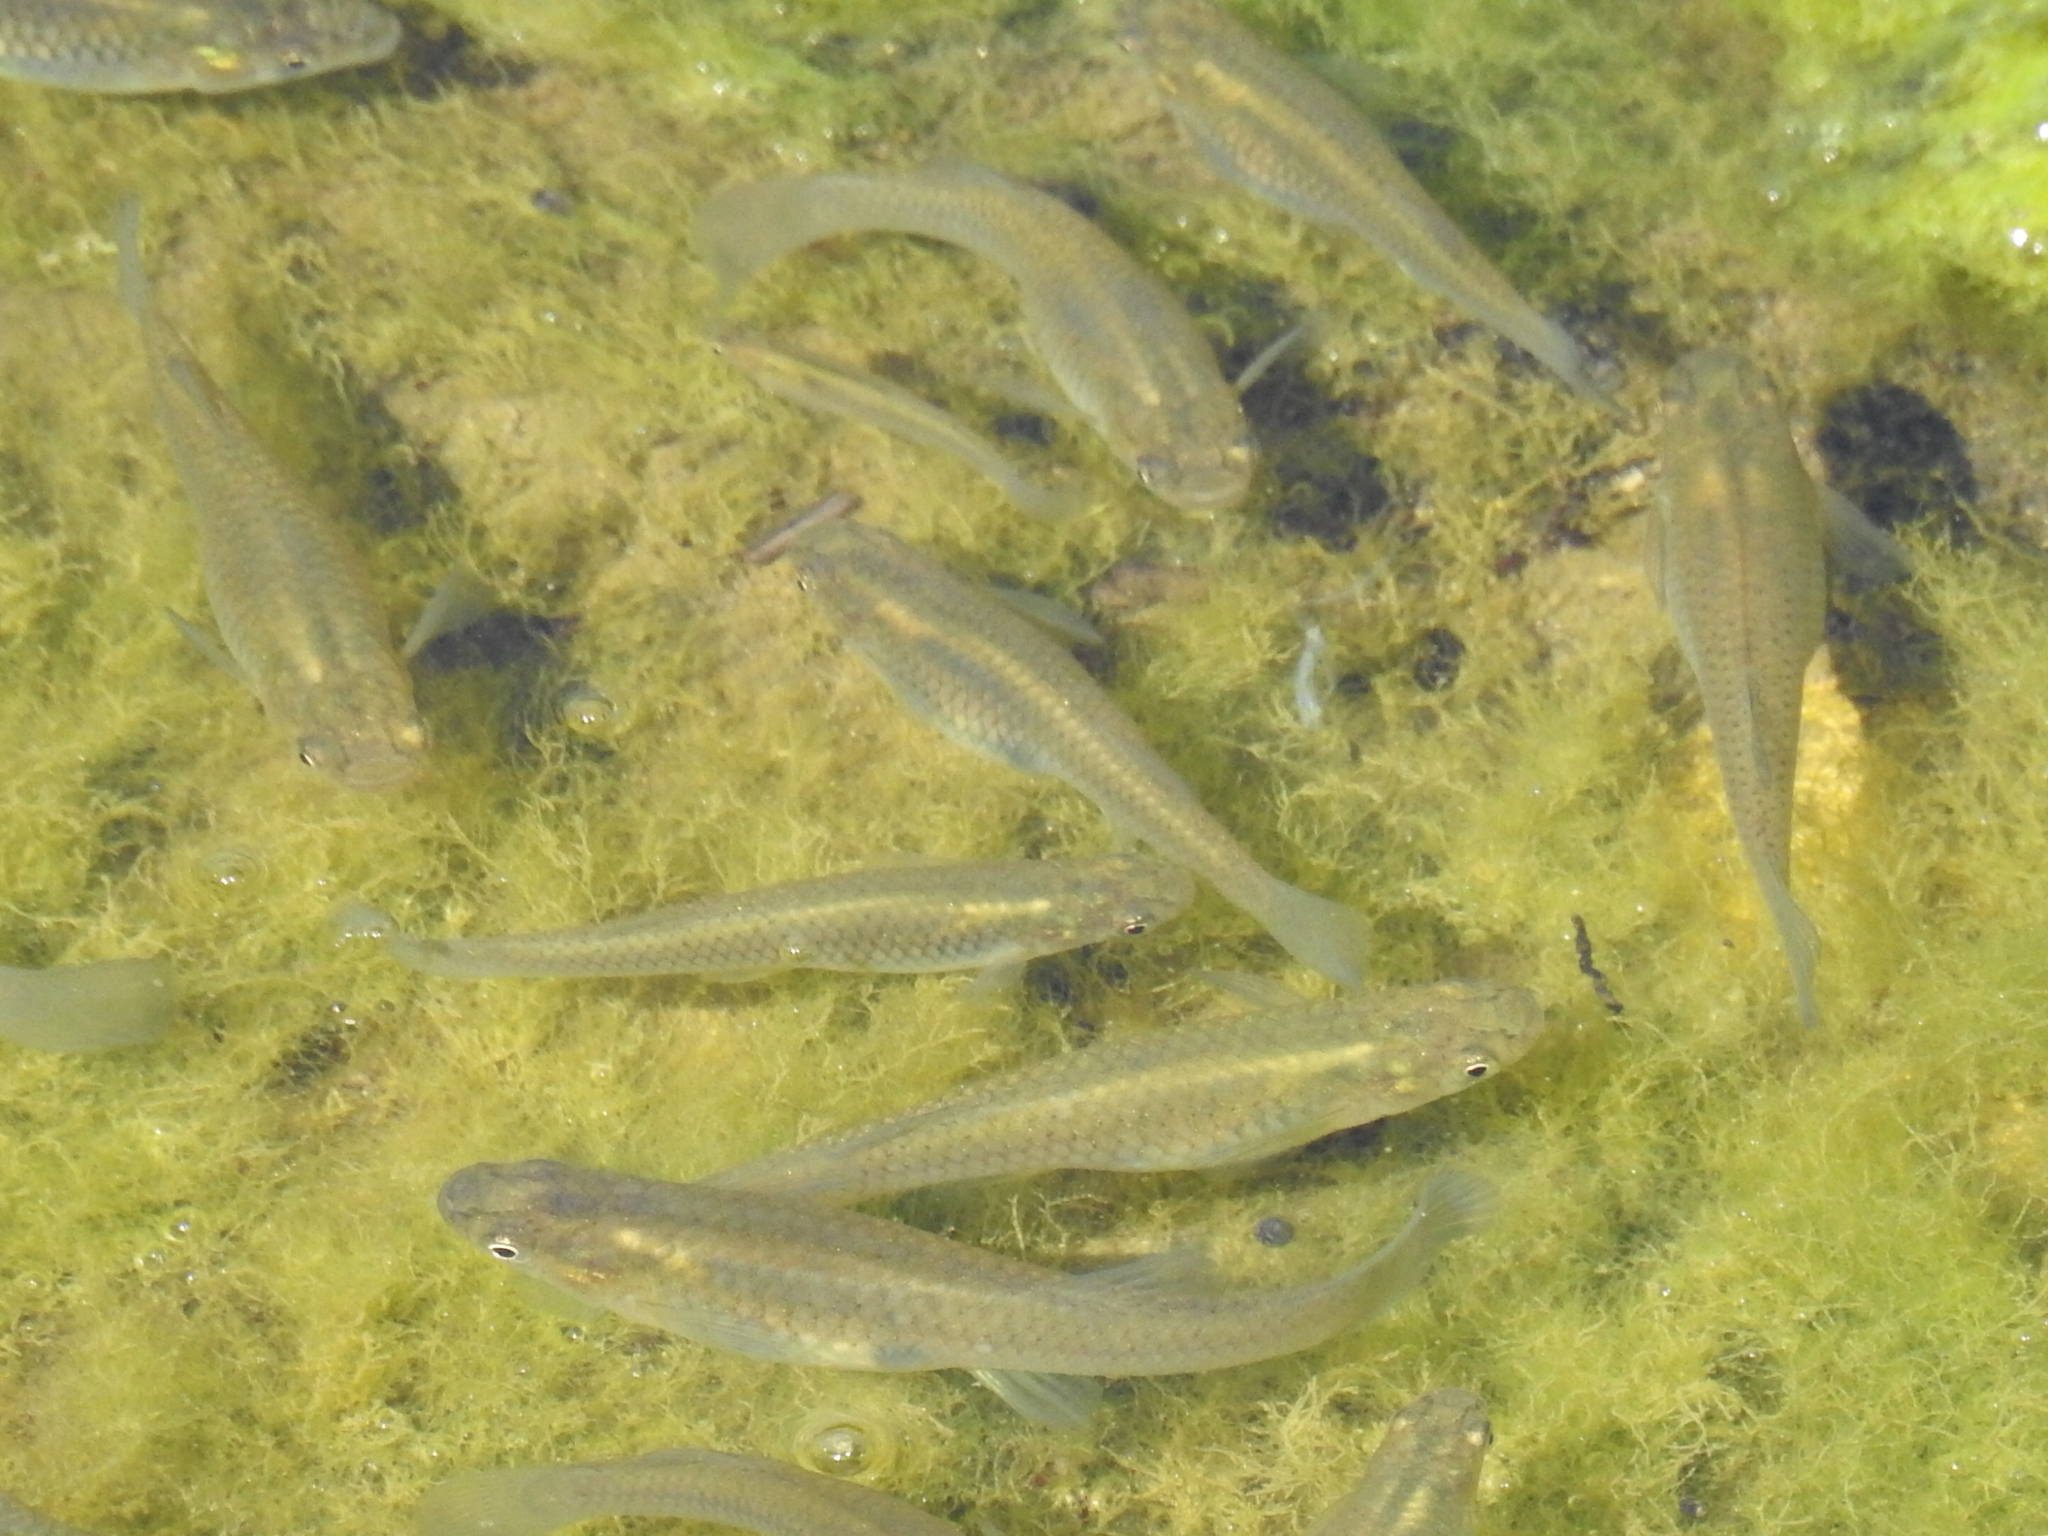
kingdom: Animalia
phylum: Chordata
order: Cyprinodontiformes
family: Poeciliidae
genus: Gambusia
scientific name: Gambusia affinis
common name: Mosquitofish
